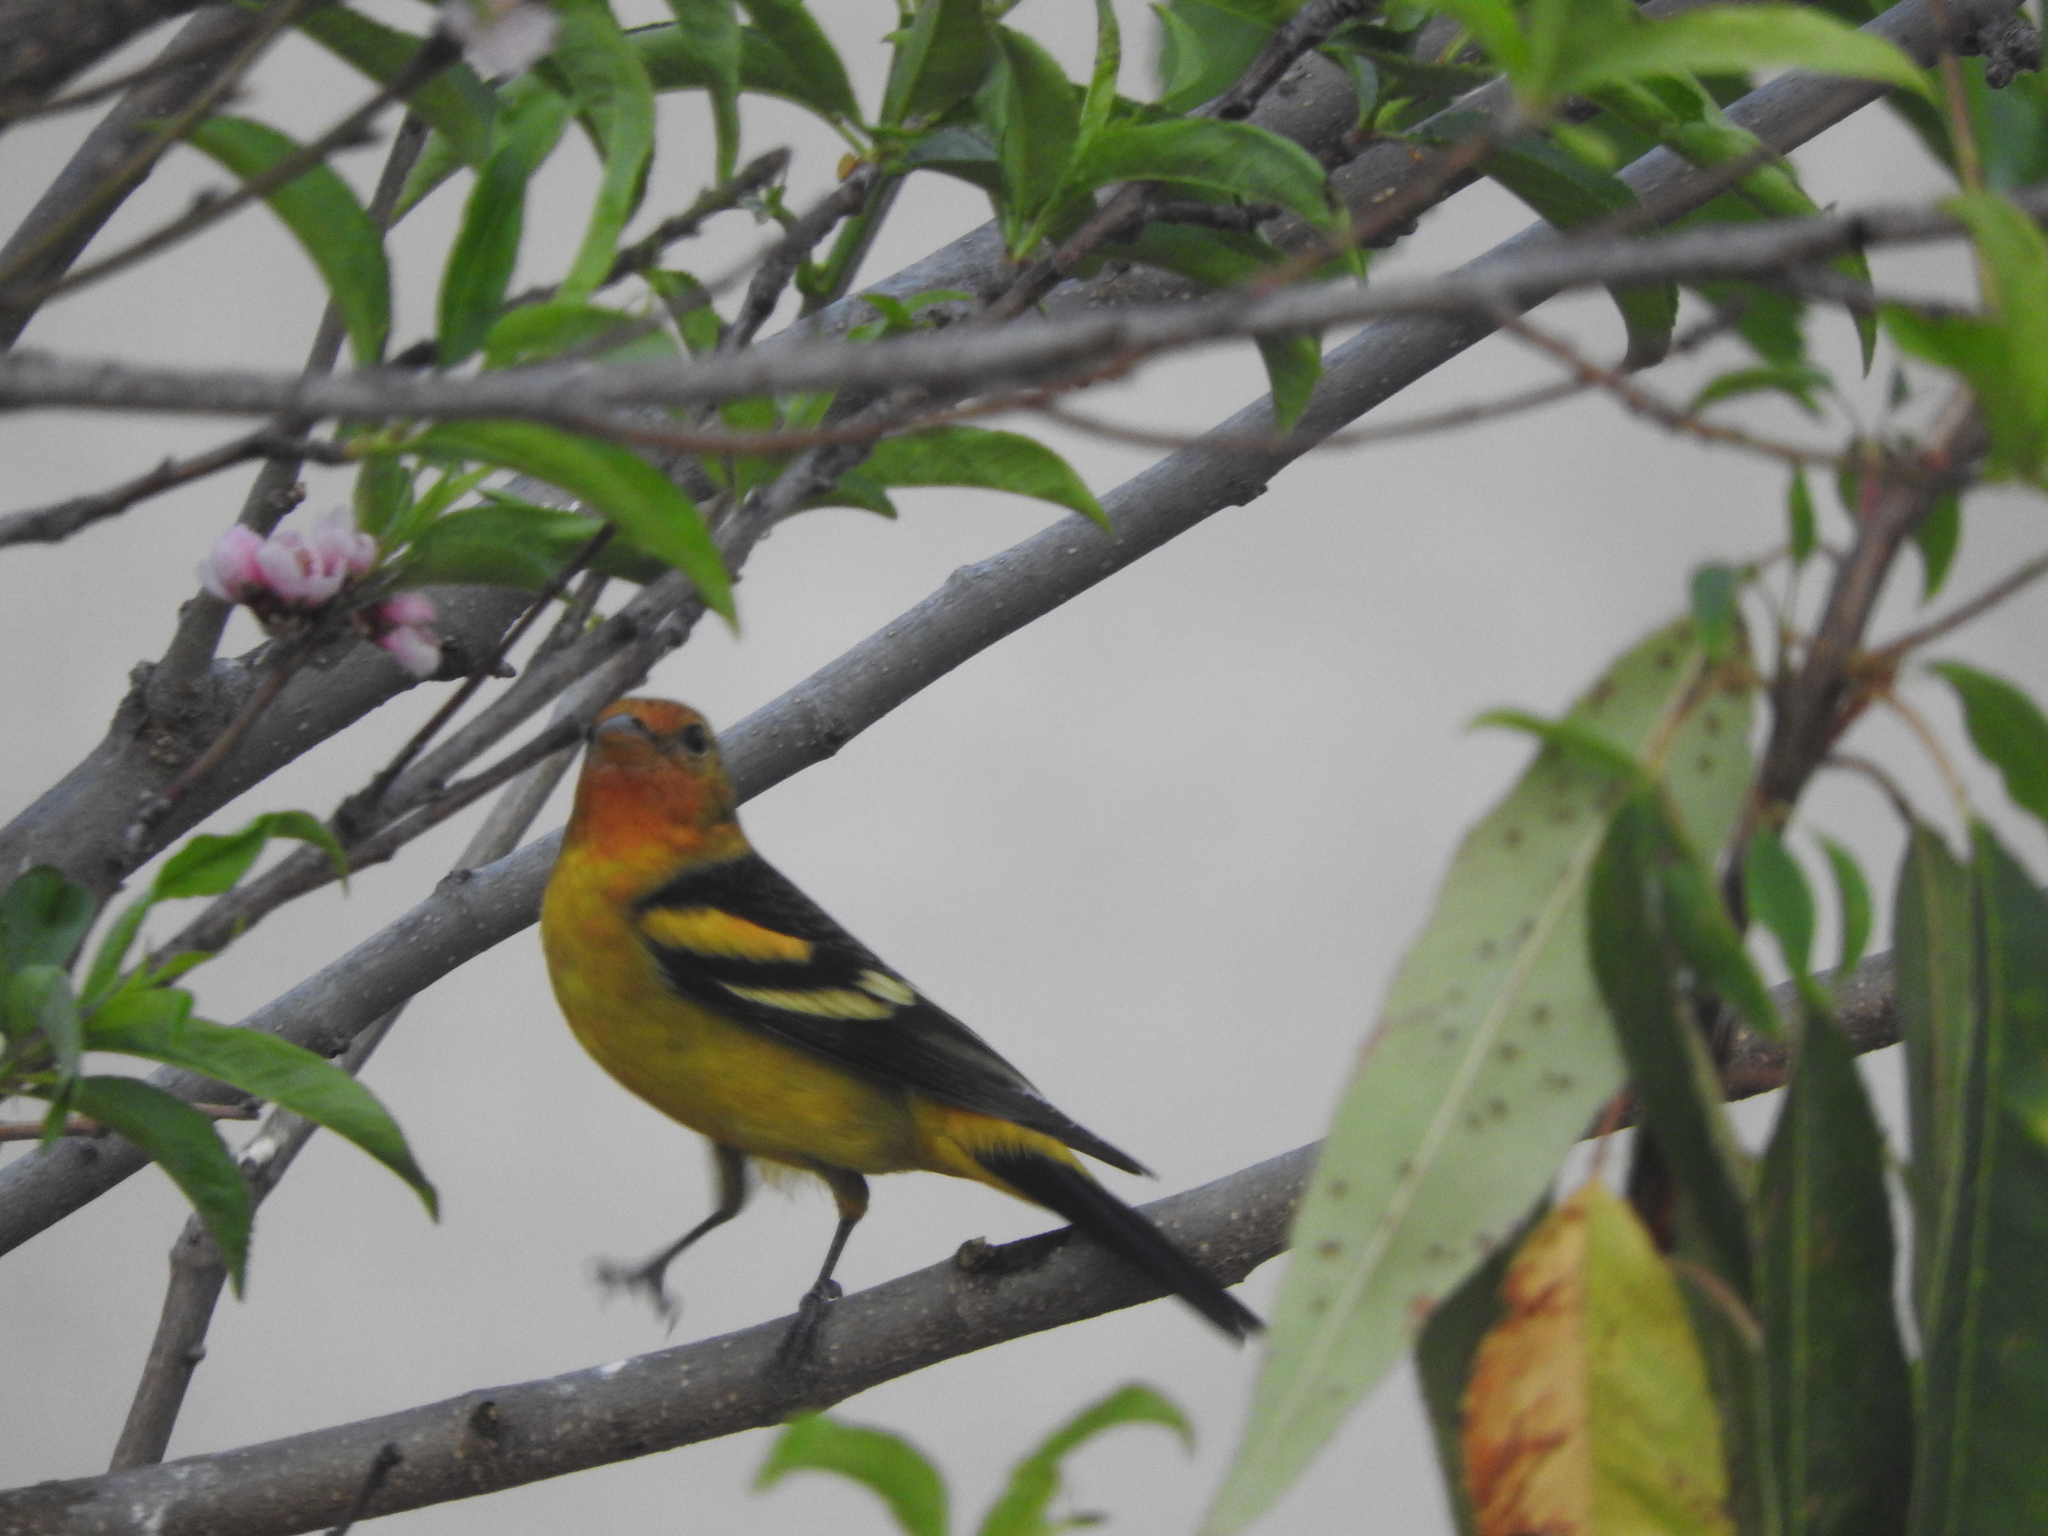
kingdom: Animalia
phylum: Chordata
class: Aves
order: Passeriformes
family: Cardinalidae
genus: Piranga
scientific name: Piranga ludoviciana
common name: Western tanager
